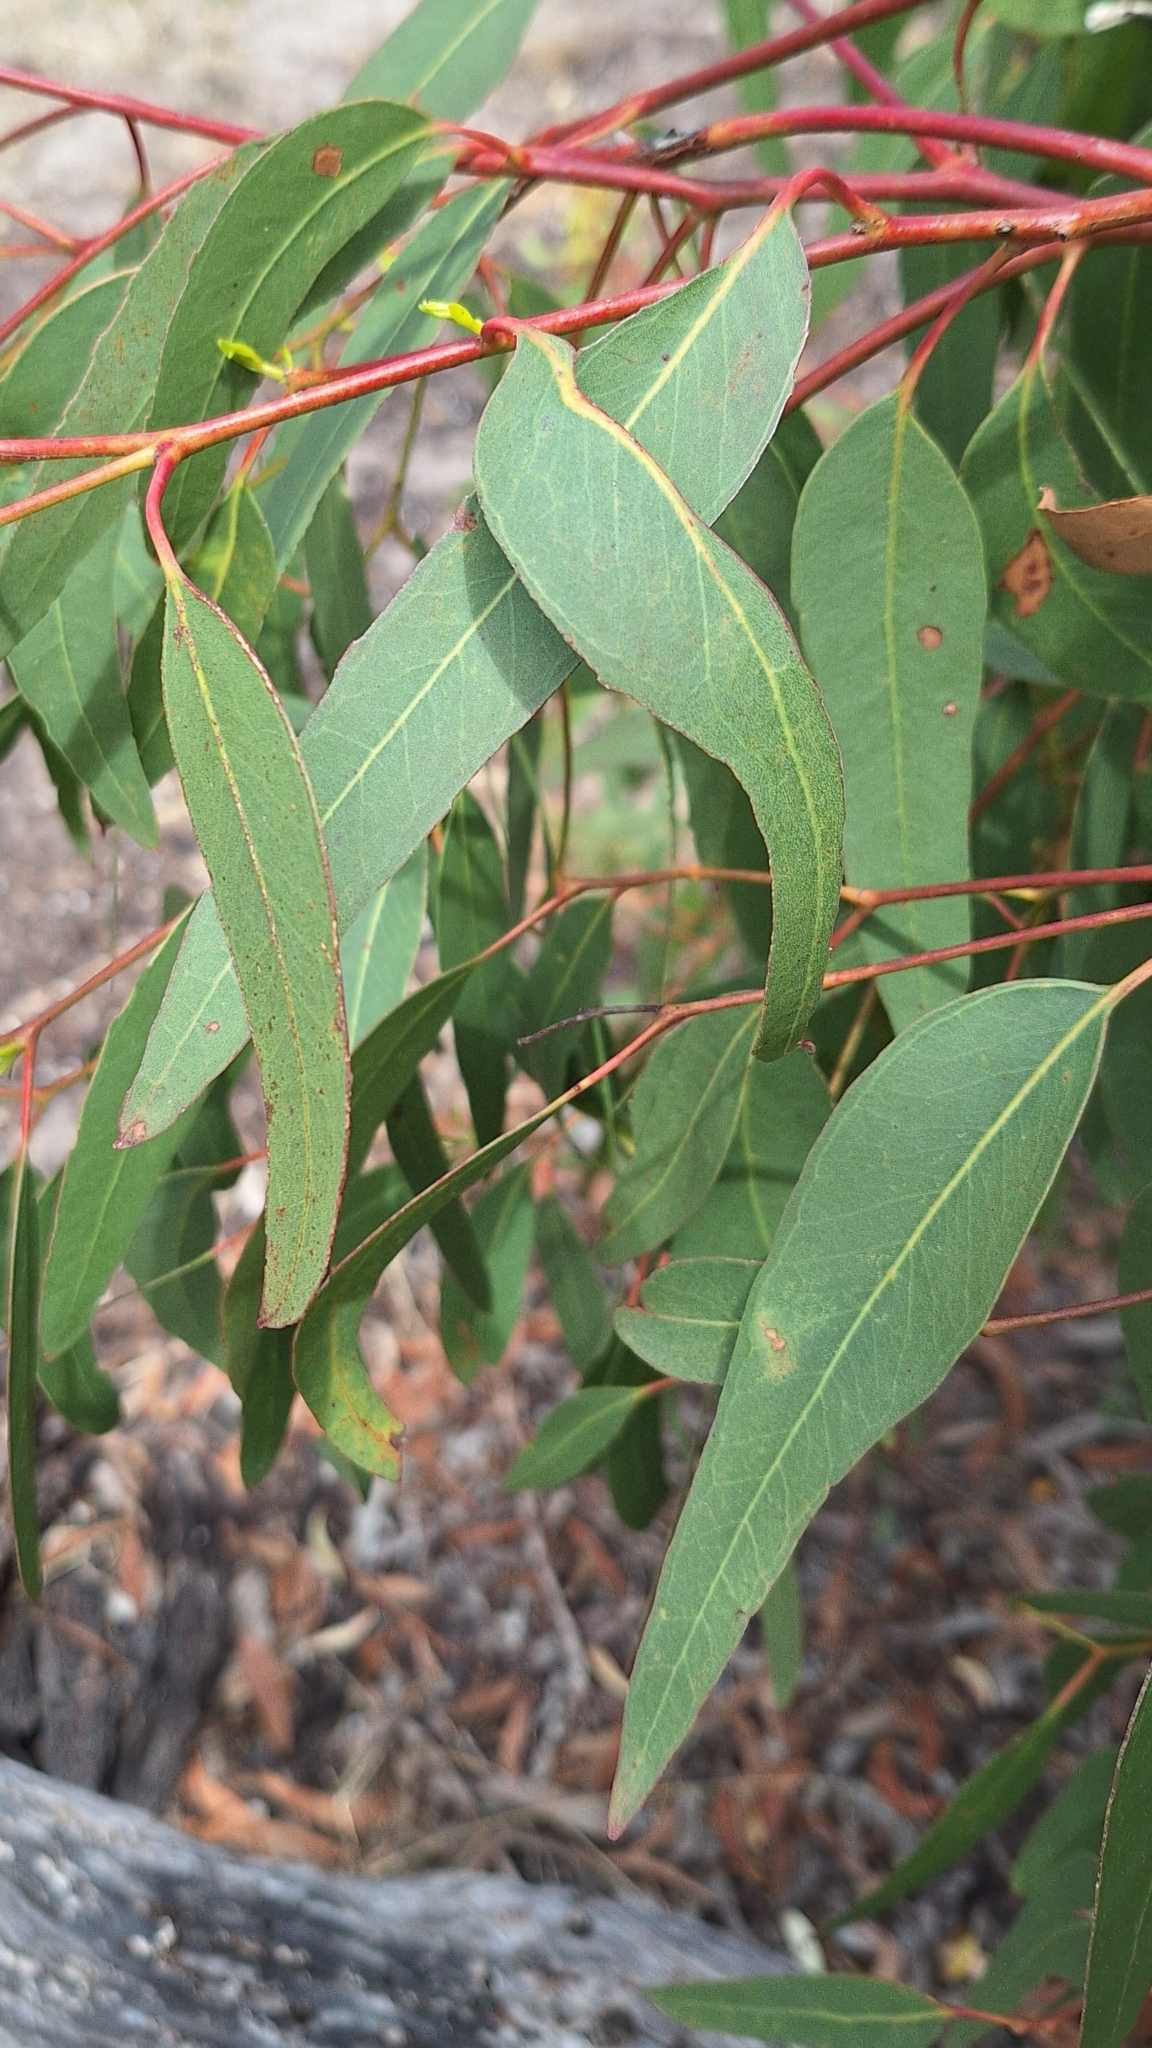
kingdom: Plantae
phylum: Tracheophyta
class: Magnoliopsida
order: Myrtales
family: Myrtaceae
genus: Eucalyptus
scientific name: Eucalyptus fasciculosa
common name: Hill gum
